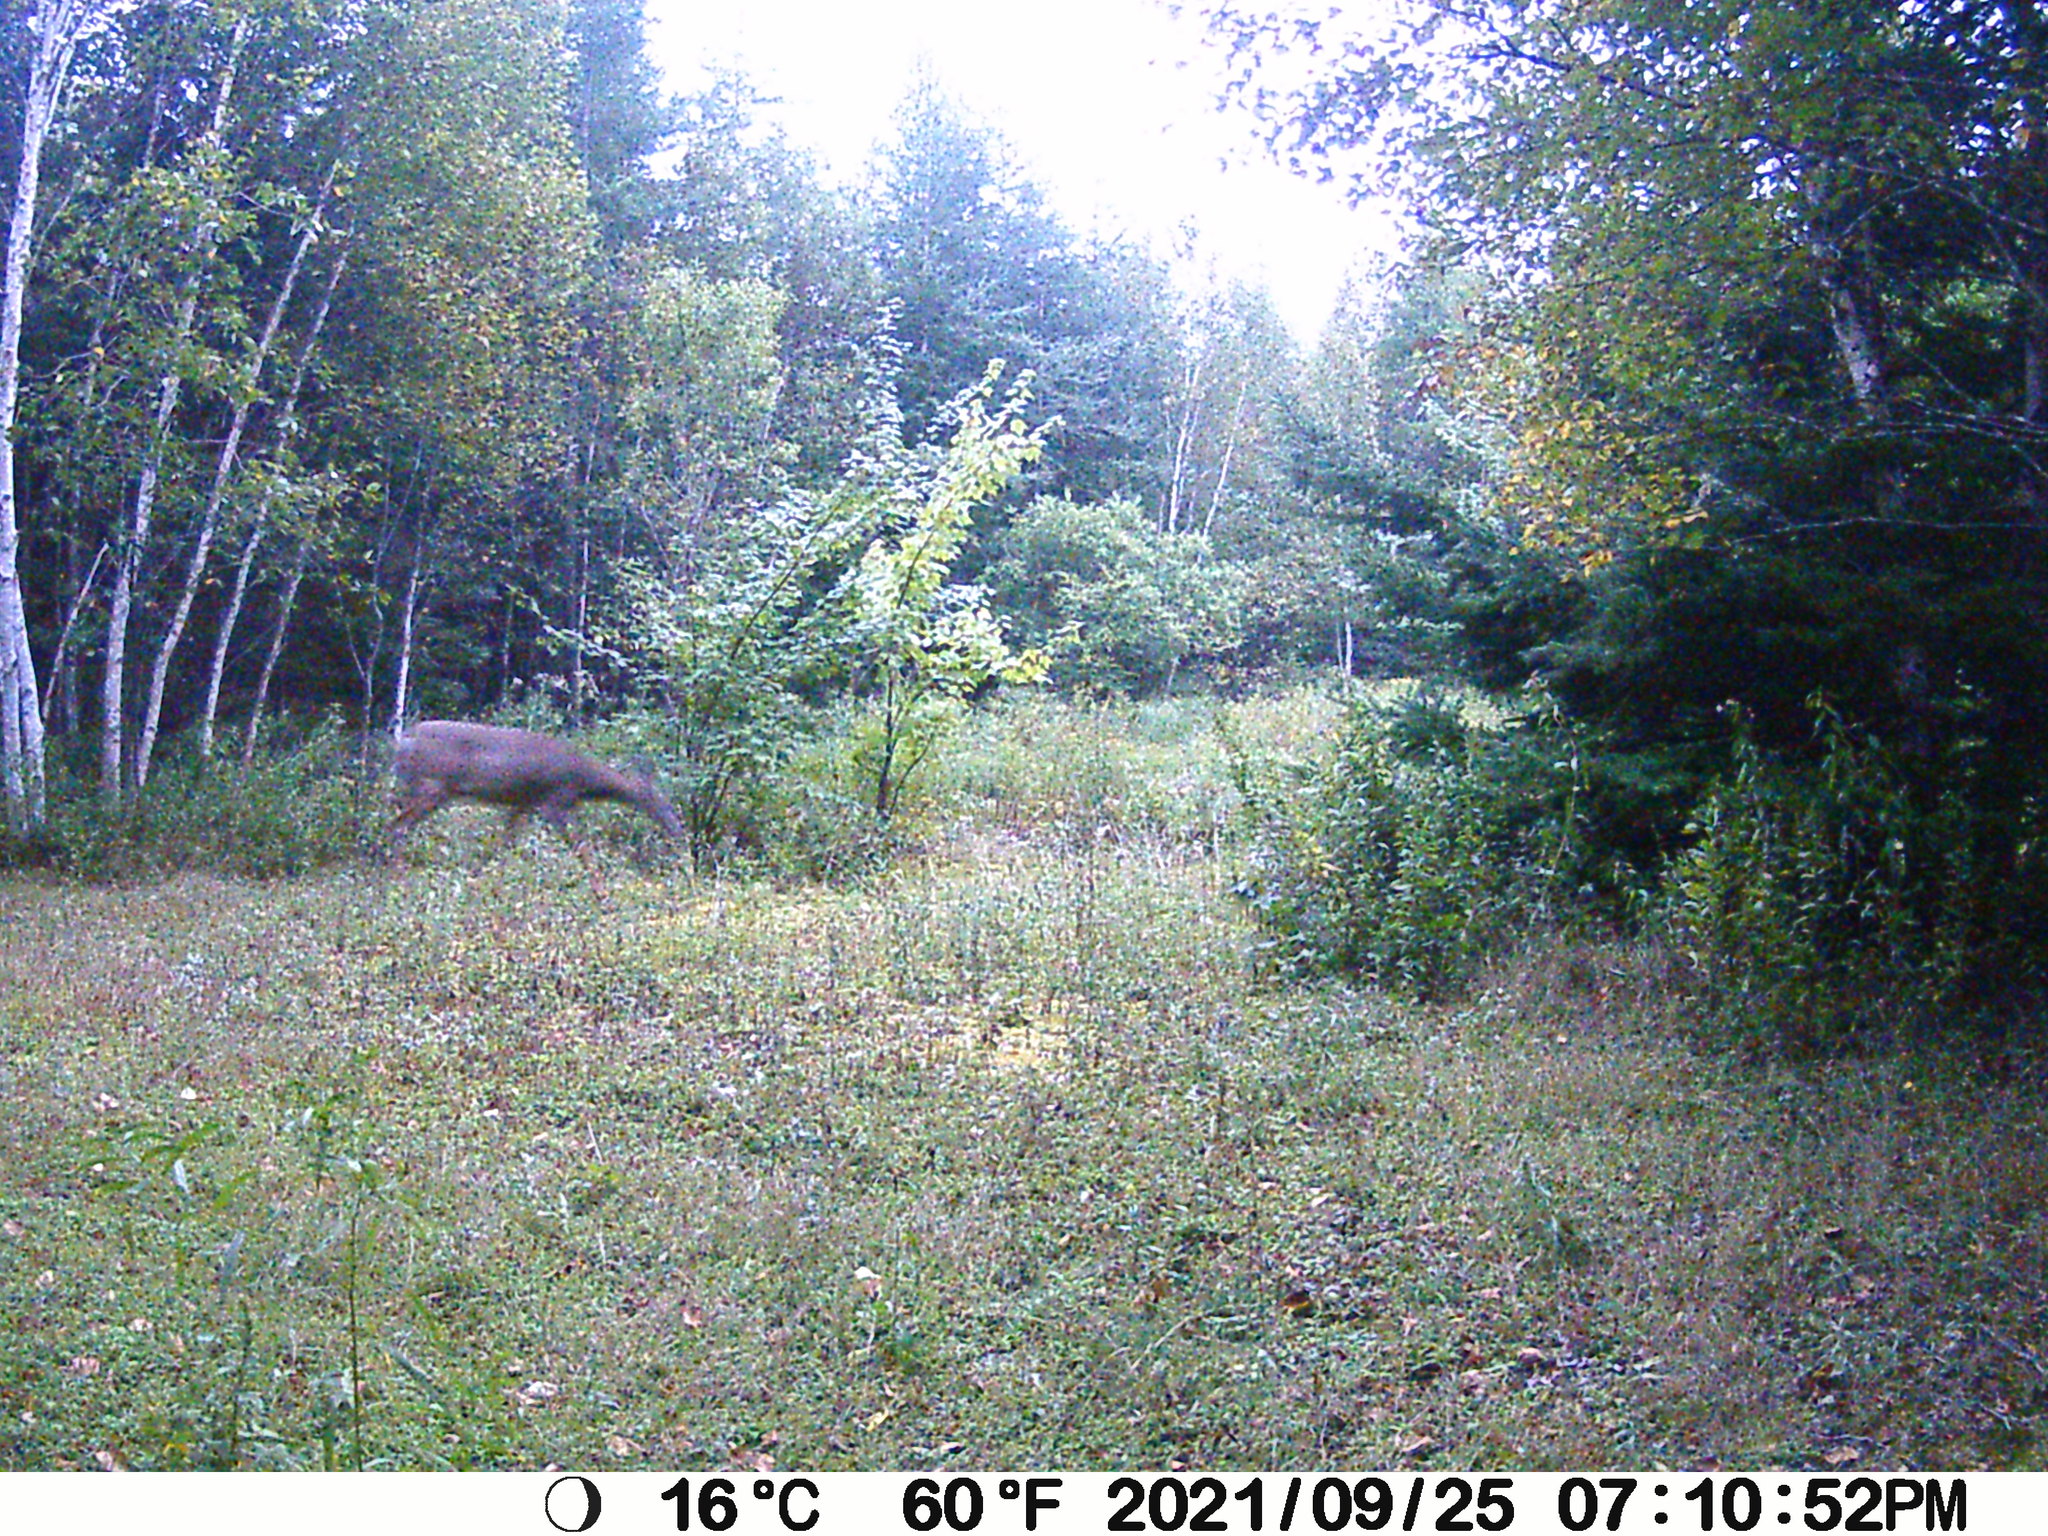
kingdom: Animalia
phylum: Chordata
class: Mammalia
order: Artiodactyla
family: Cervidae
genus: Odocoileus
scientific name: Odocoileus virginianus
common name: White-tailed deer
